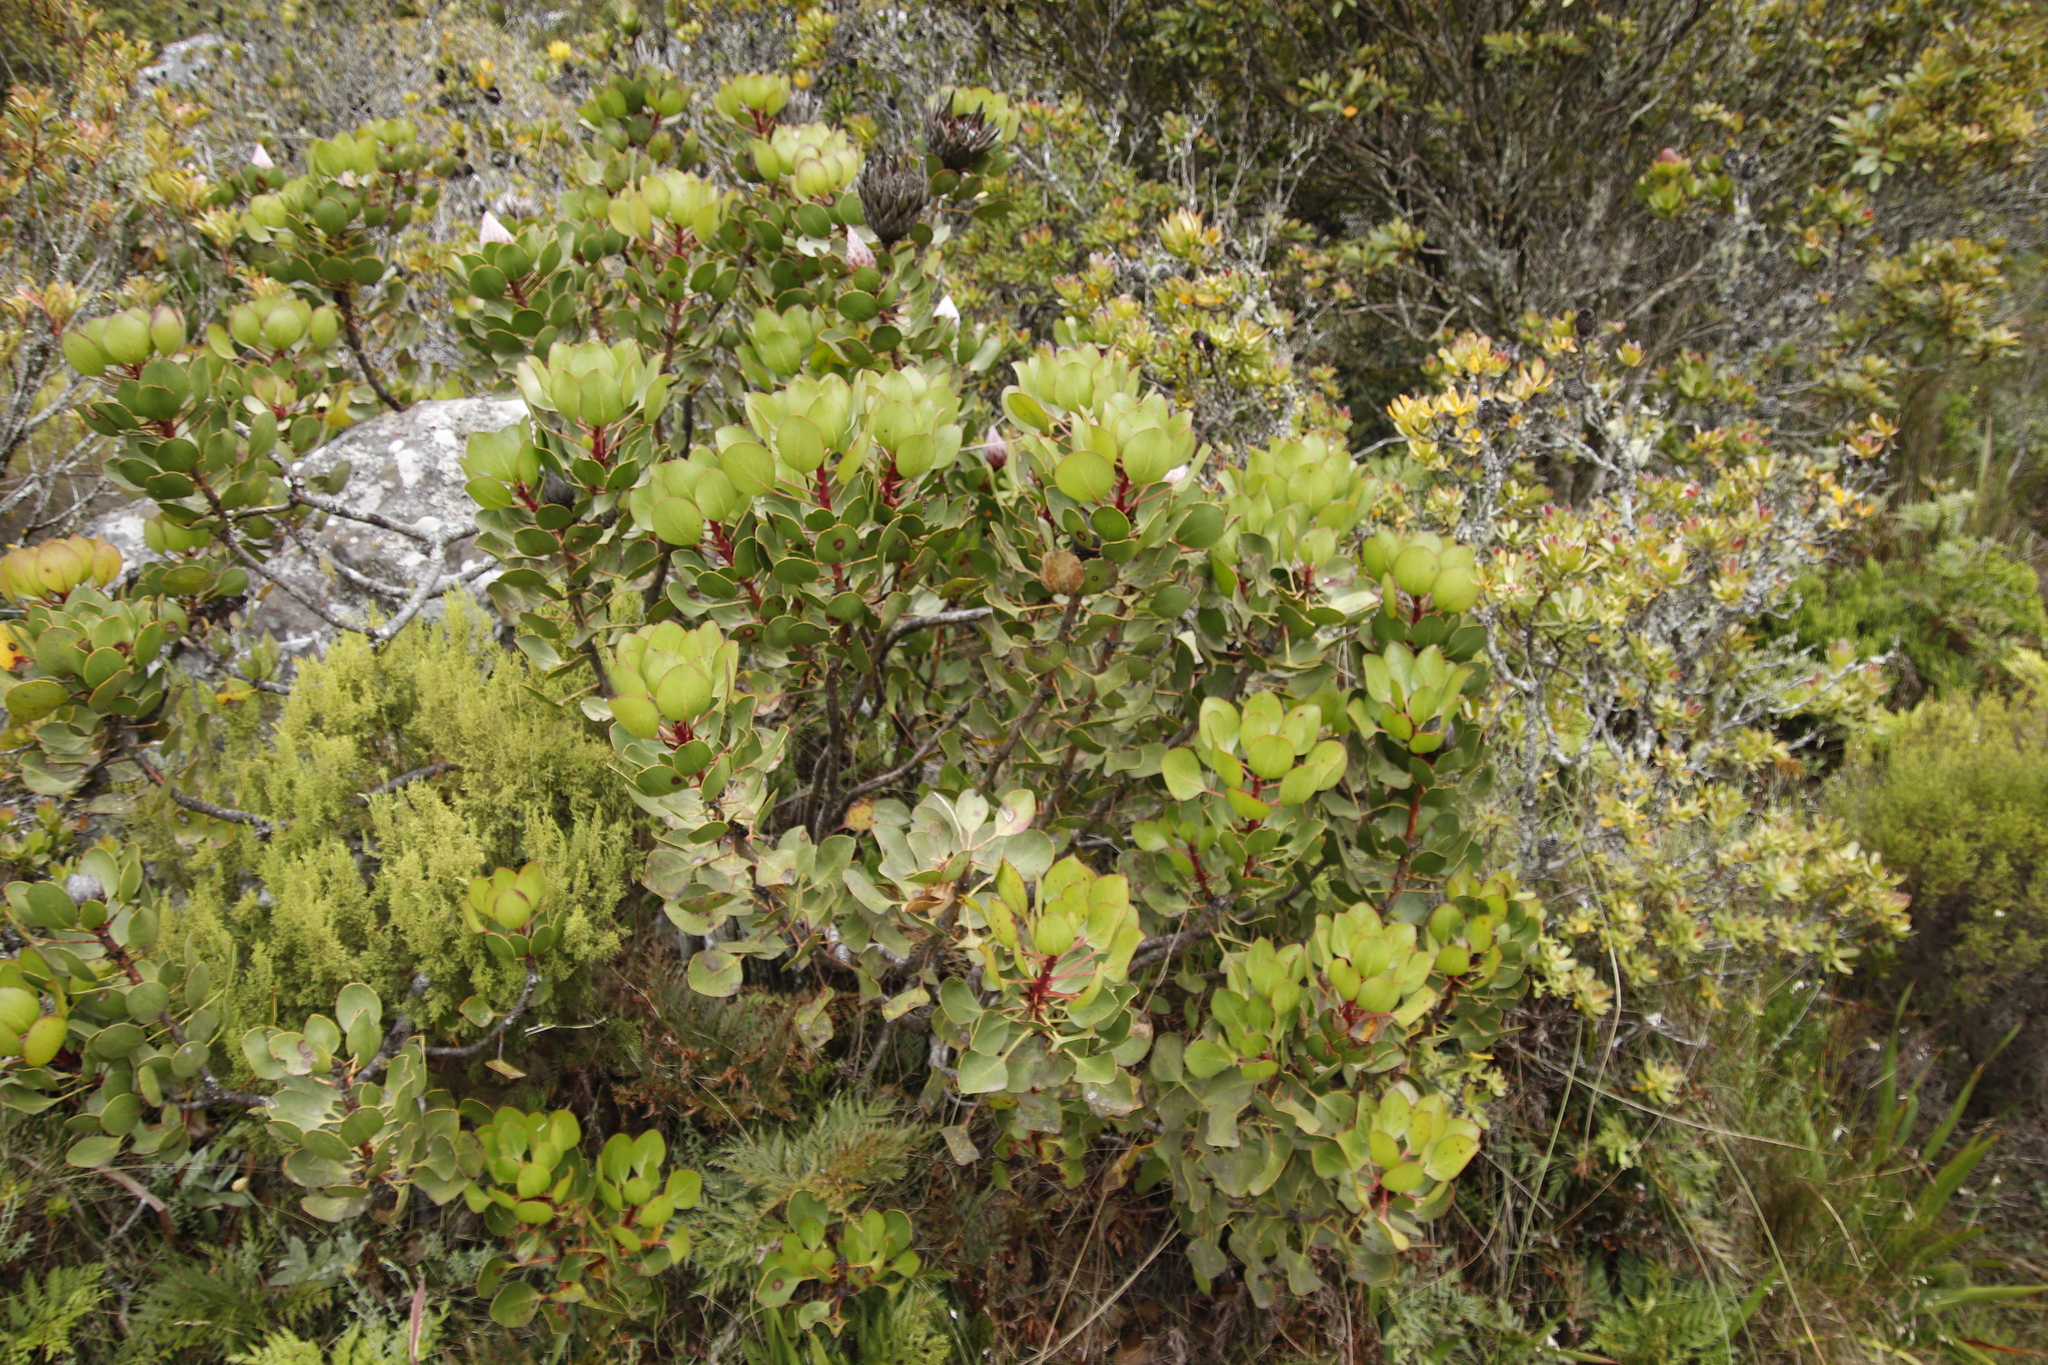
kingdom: Plantae
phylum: Tracheophyta
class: Magnoliopsida
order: Proteales
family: Proteaceae
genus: Protea
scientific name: Protea cynaroides
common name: King protea
